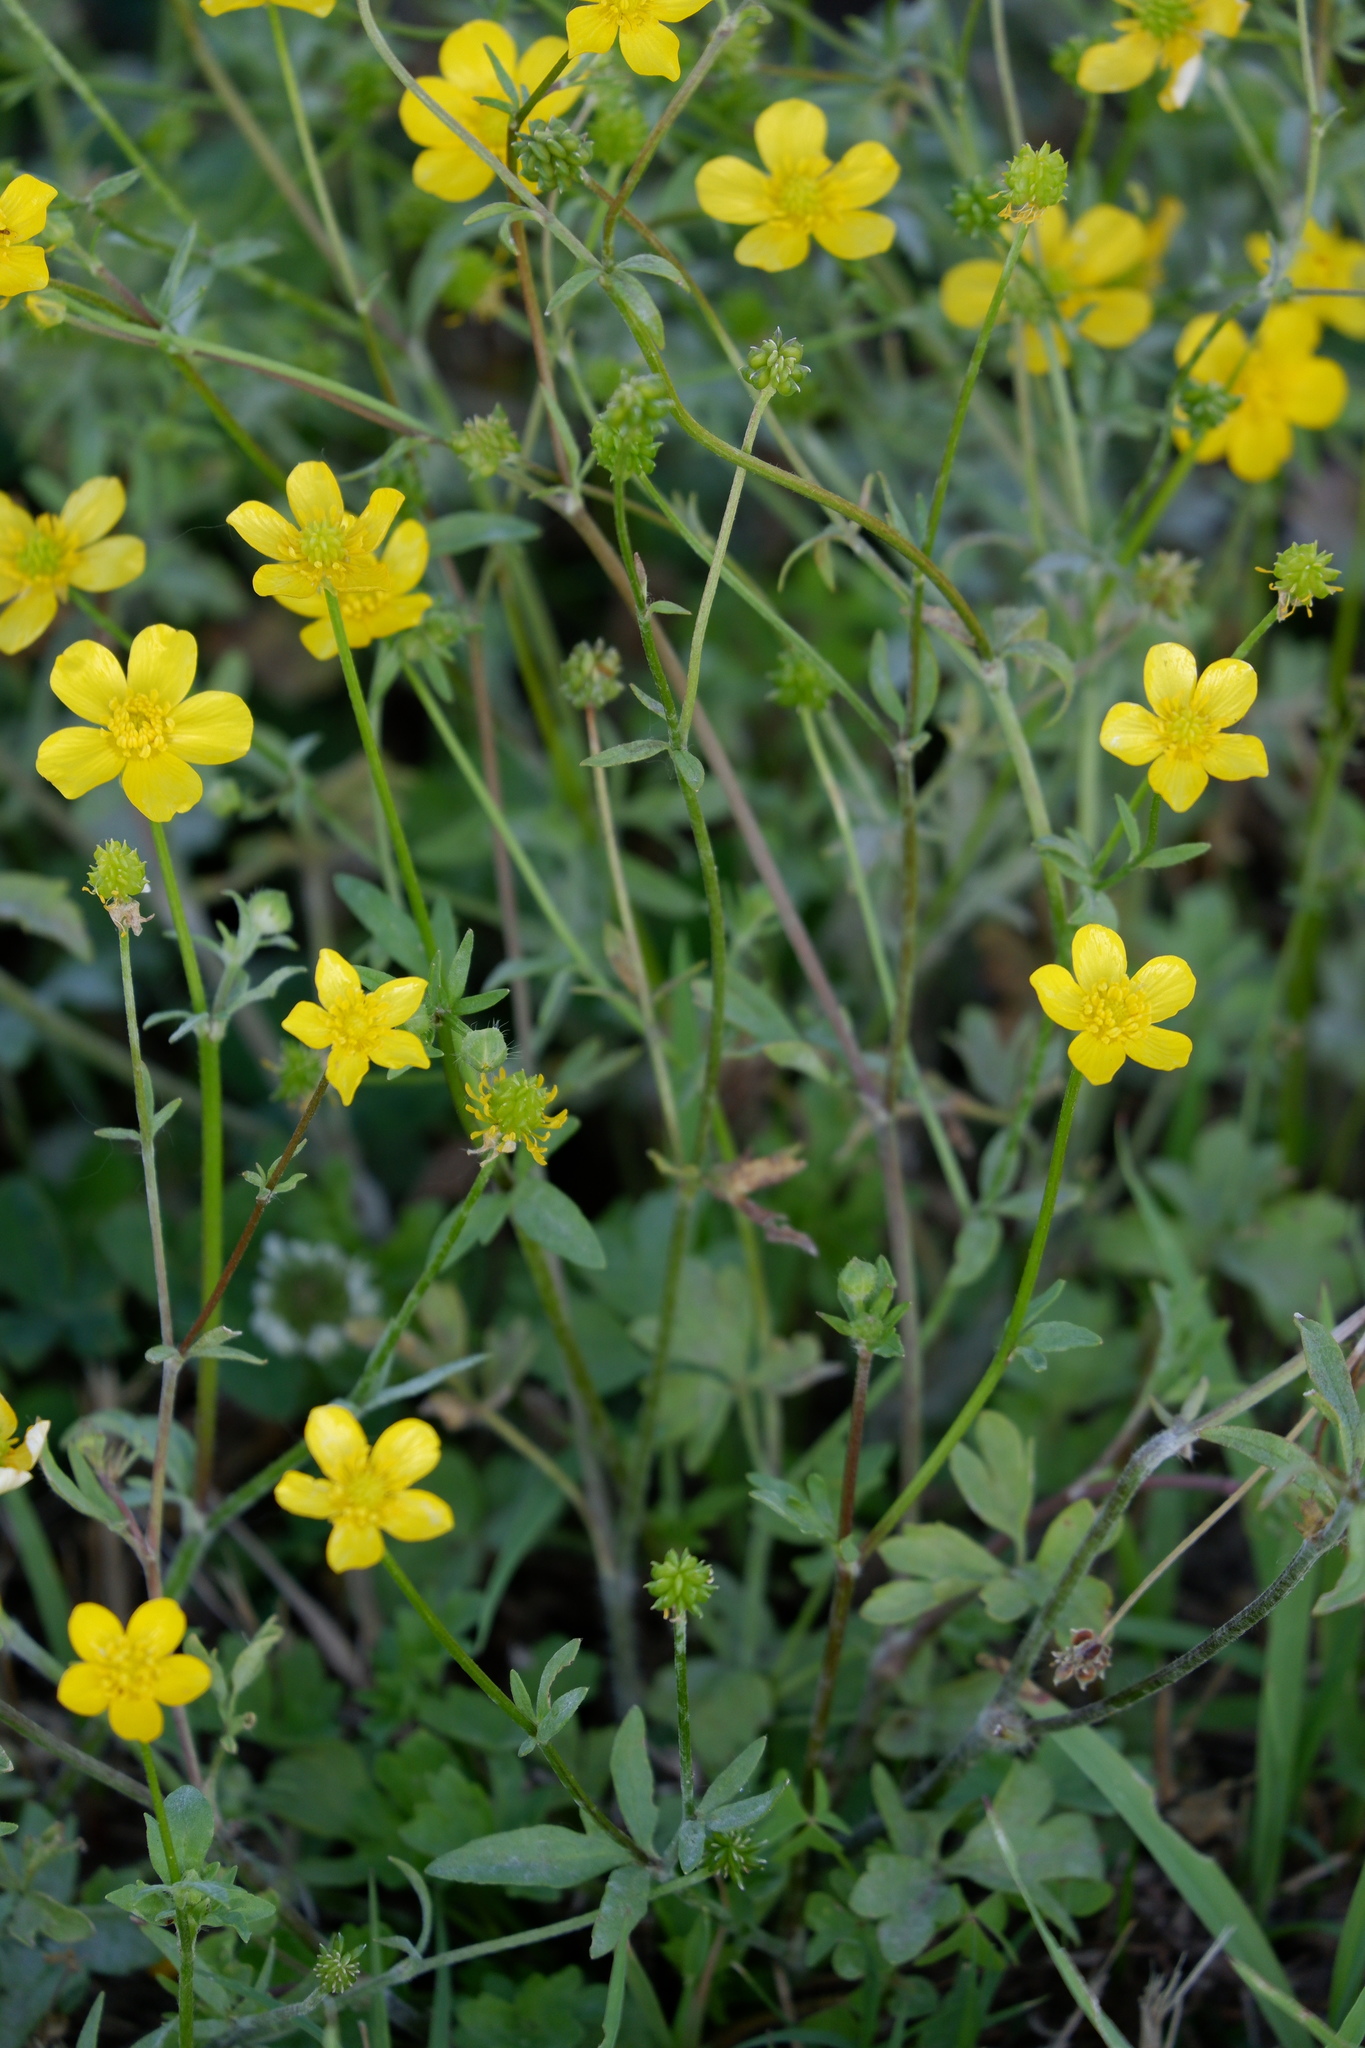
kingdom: Plantae
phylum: Tracheophyta
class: Magnoliopsida
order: Ranunculales
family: Ranunculaceae
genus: Ranunculus
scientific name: Ranunculus sardous
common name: Hairy buttercup
